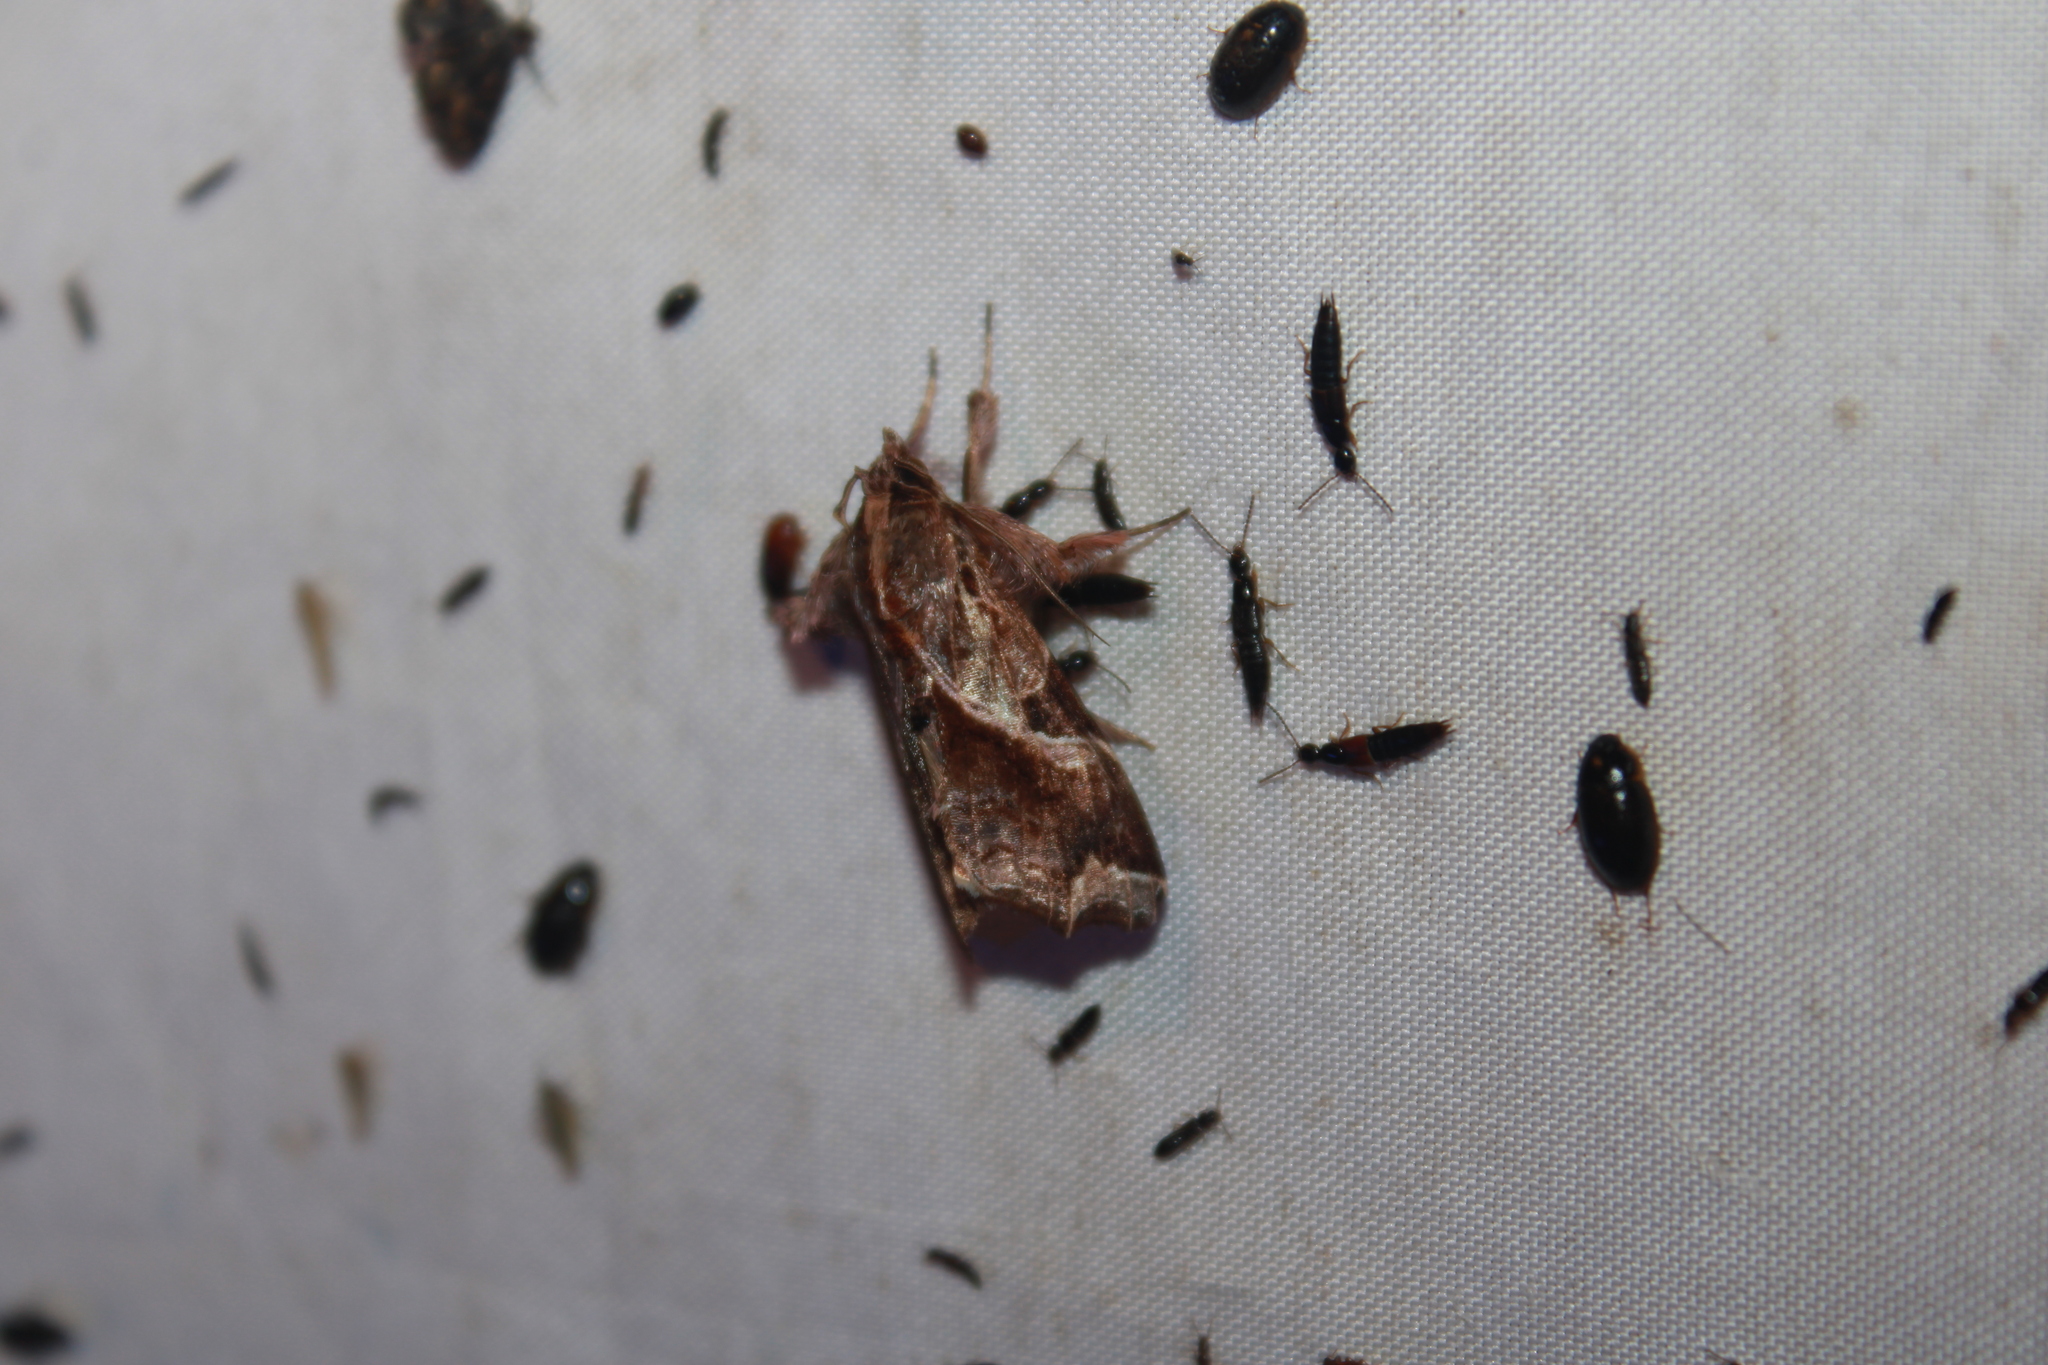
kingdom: Animalia
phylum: Arthropoda
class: Insecta
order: Lepidoptera
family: Noctuidae
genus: Callopistria
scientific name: Callopistria floridensis
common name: Florida fern moth
